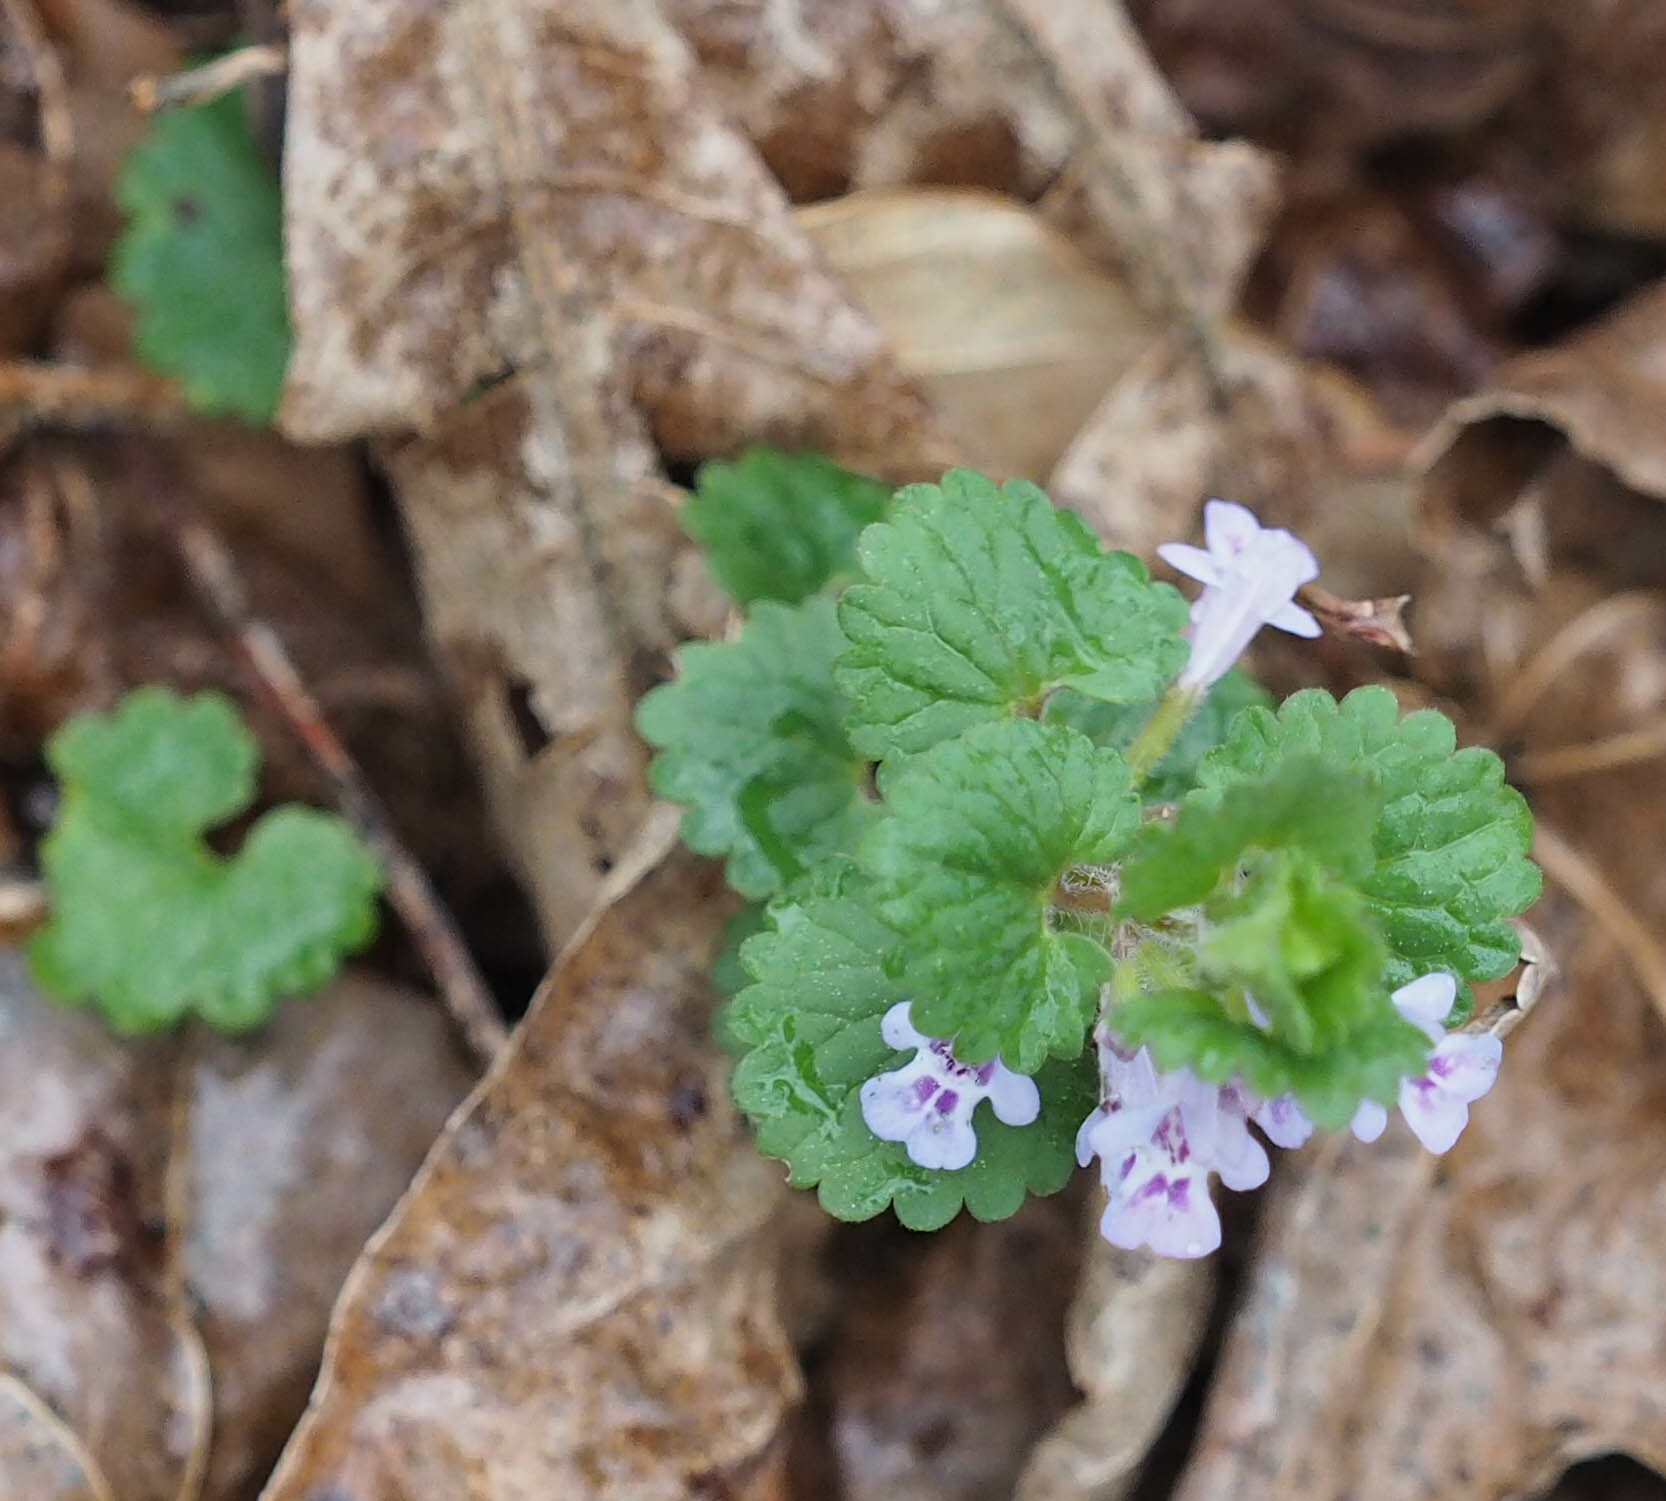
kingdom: Plantae
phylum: Tracheophyta
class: Magnoliopsida
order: Lamiales
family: Lamiaceae
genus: Glechoma
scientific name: Glechoma hederacea
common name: Ground ivy
